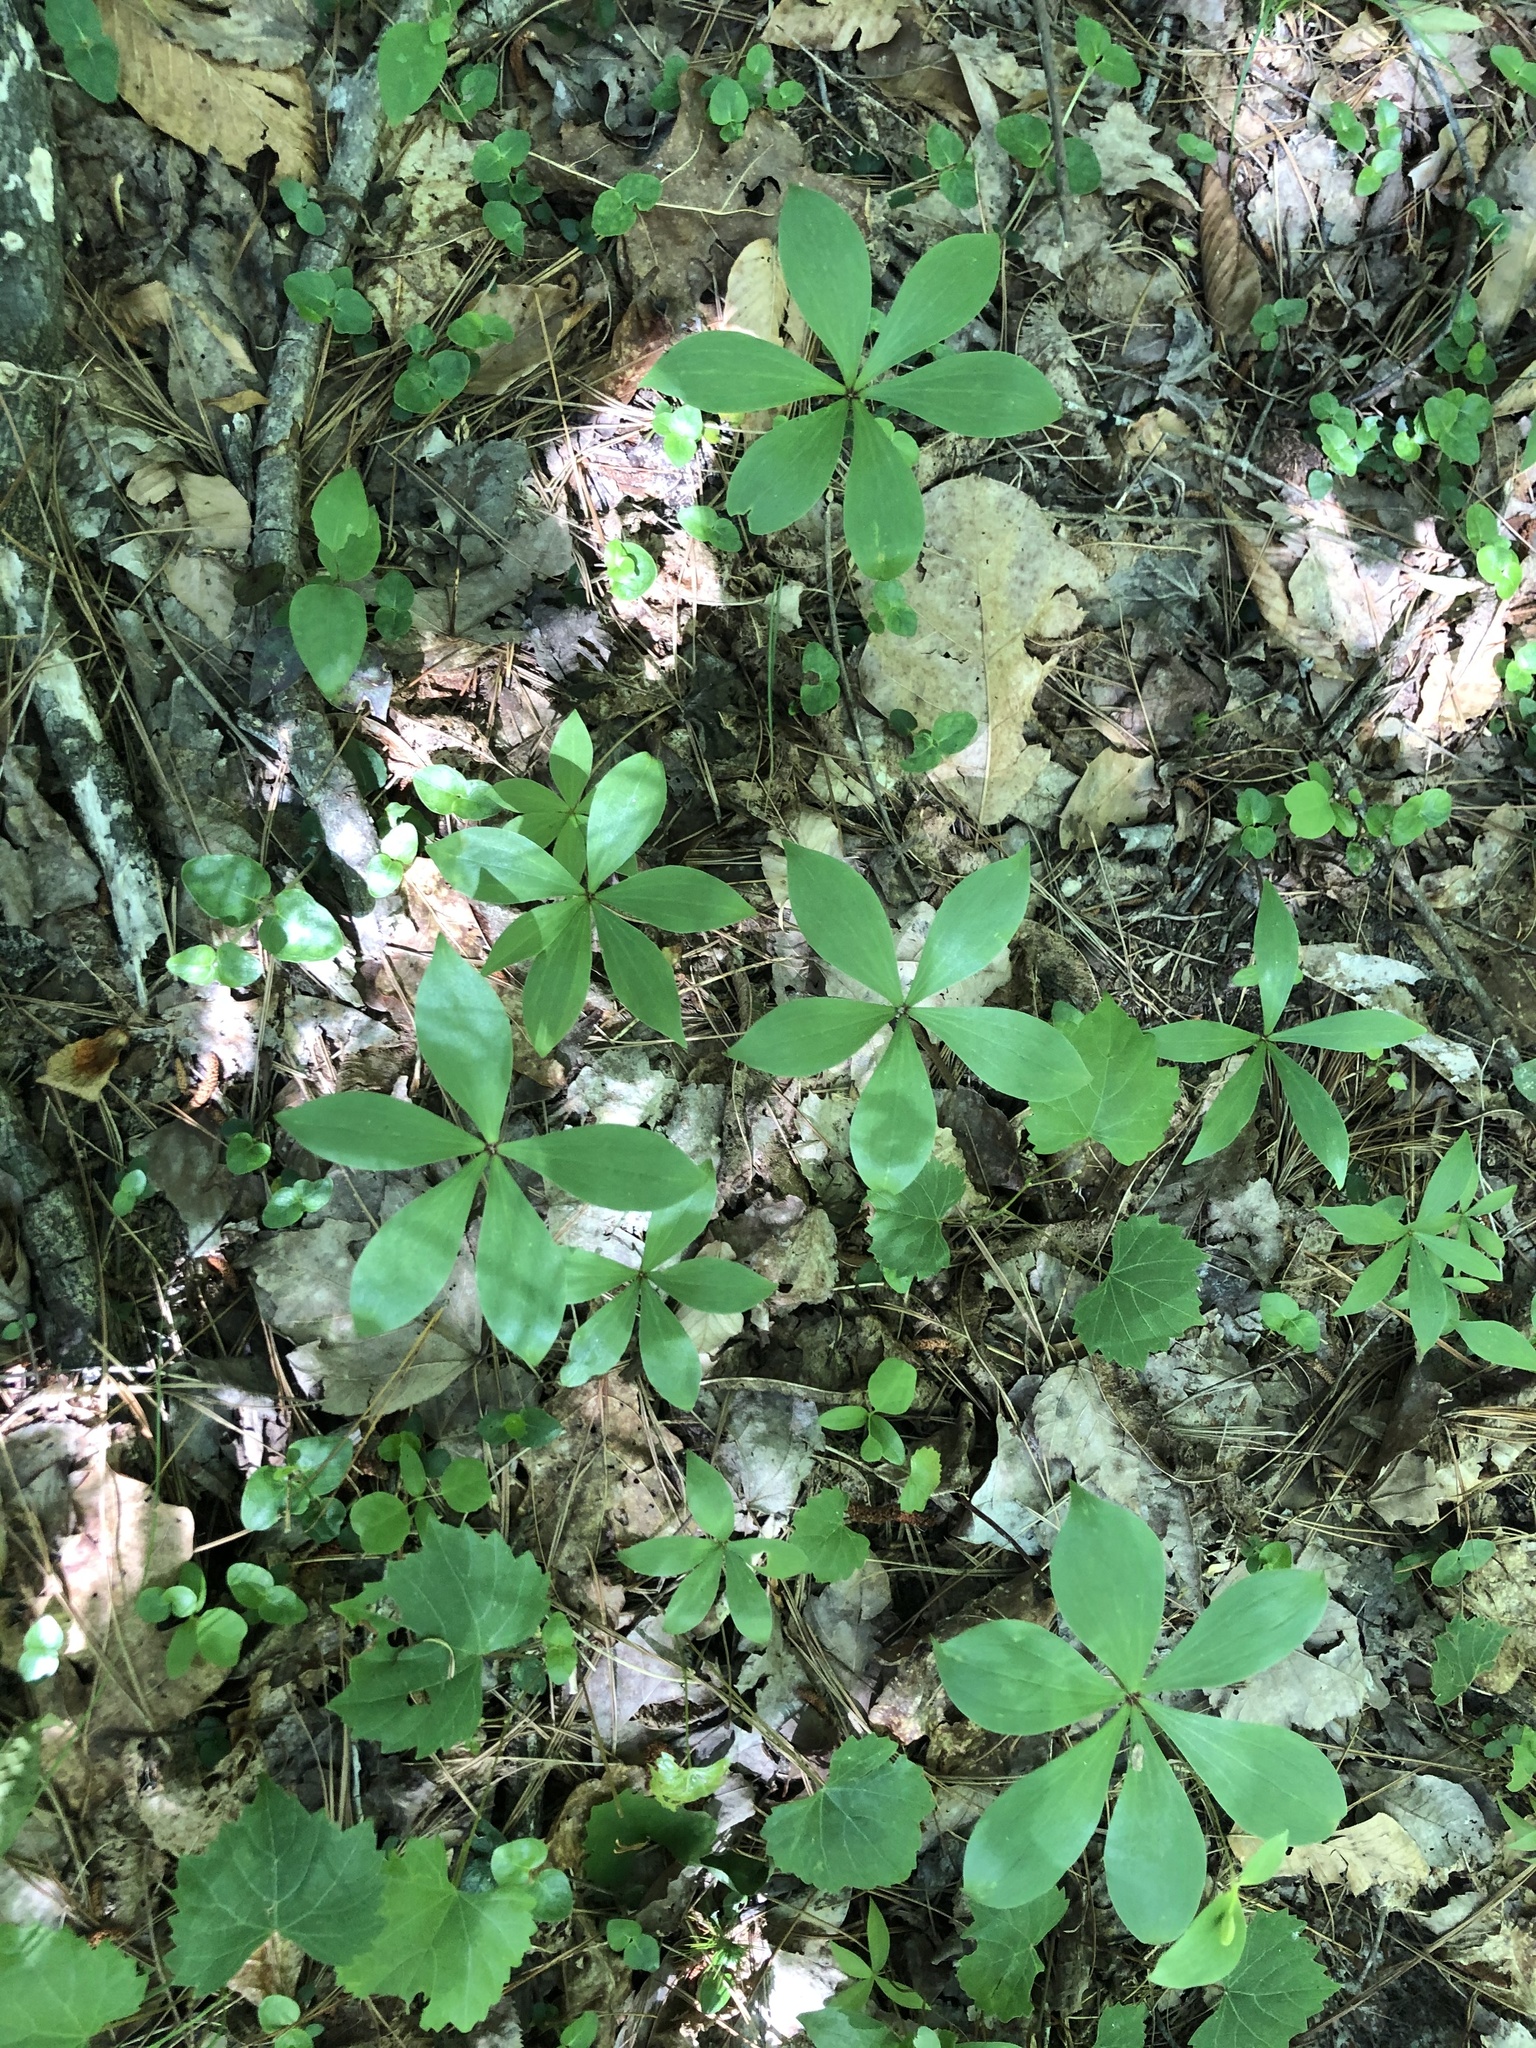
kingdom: Plantae
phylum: Tracheophyta
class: Liliopsida
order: Liliales
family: Liliaceae
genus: Medeola
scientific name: Medeola virginiana
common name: Indian cucumber-root
